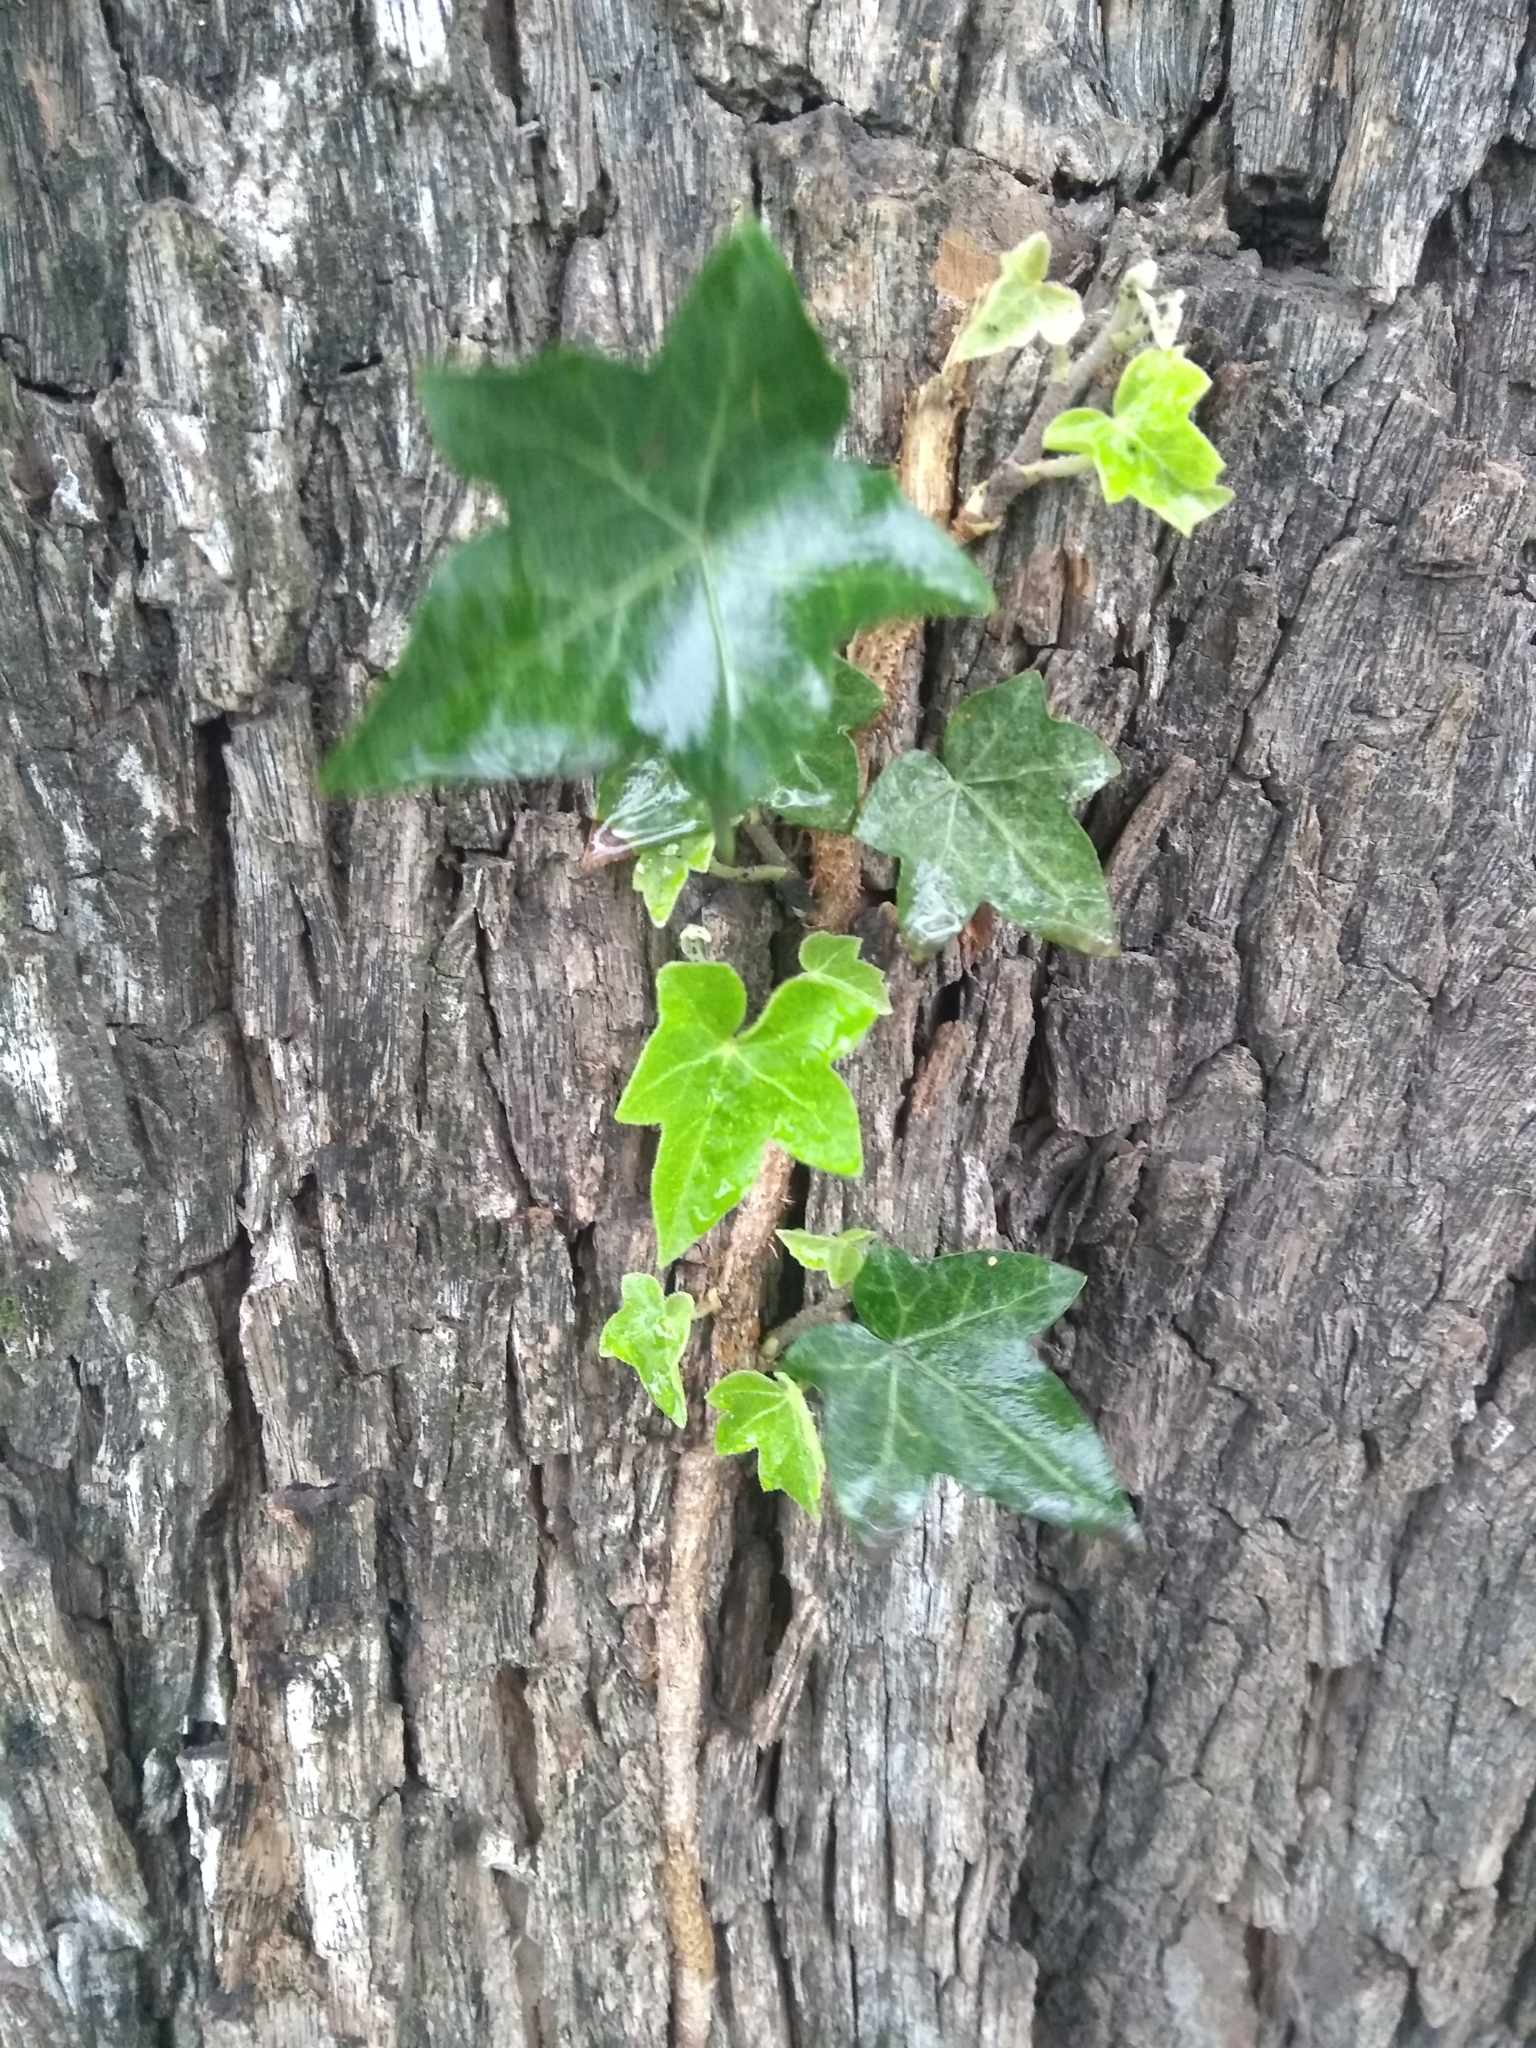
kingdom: Plantae
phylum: Tracheophyta
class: Magnoliopsida
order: Apiales
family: Araliaceae
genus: Hedera
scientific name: Hedera helix
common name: Ivy
